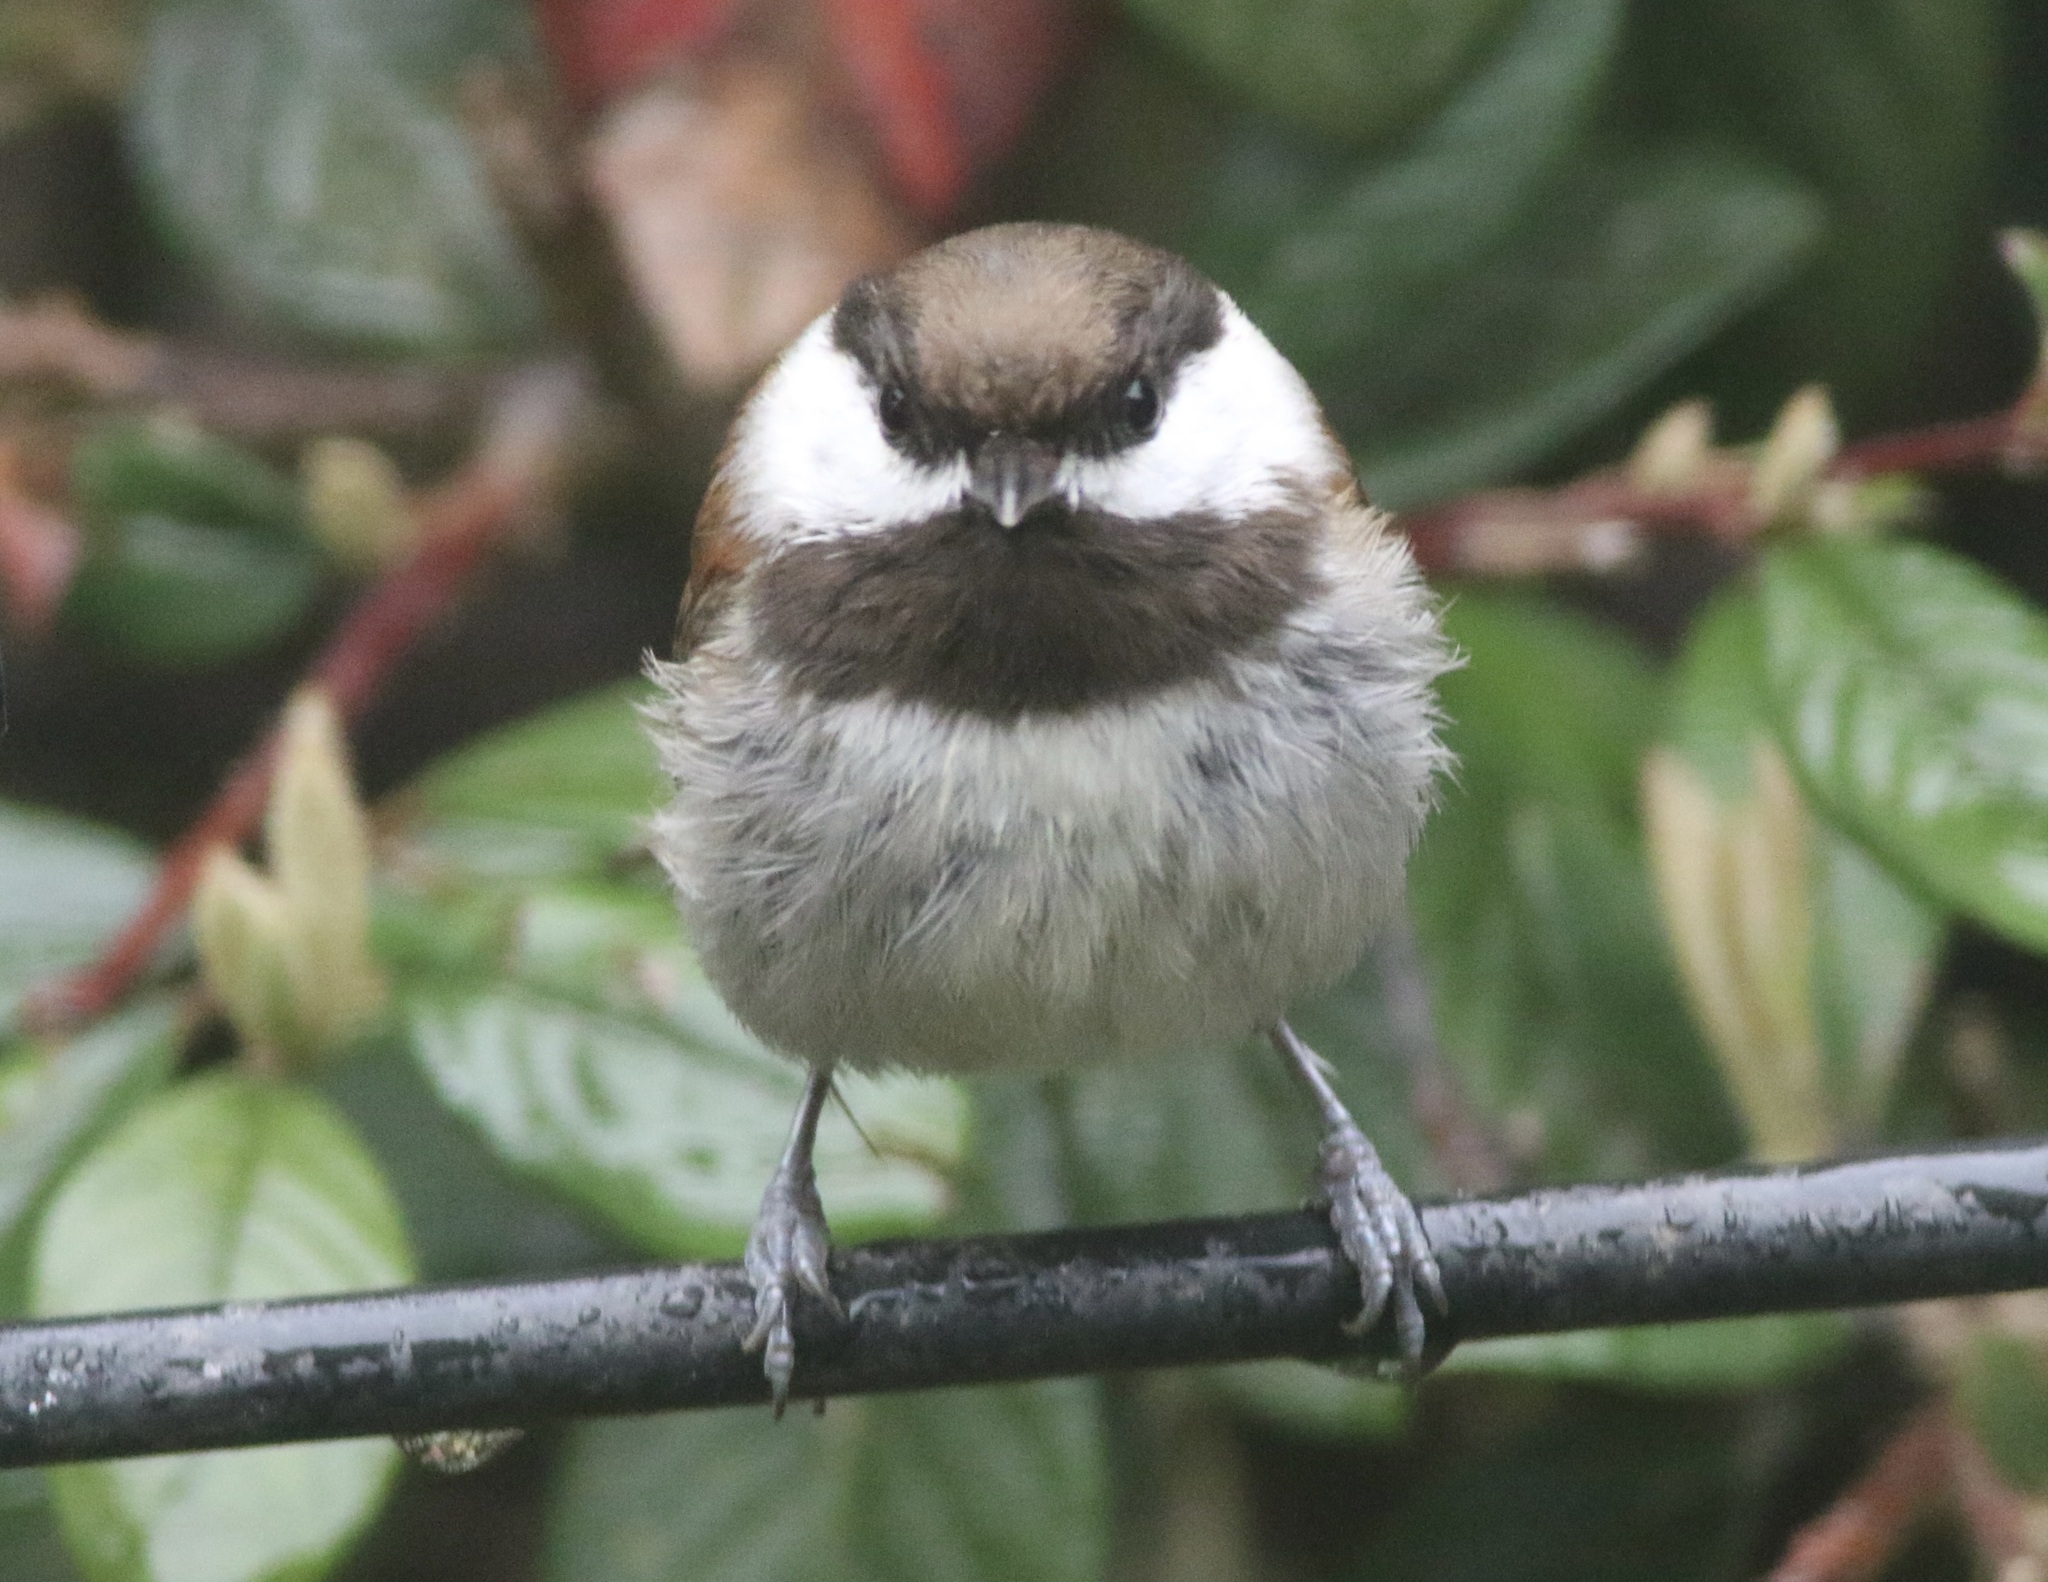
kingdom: Animalia
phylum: Chordata
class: Aves
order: Passeriformes
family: Paridae
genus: Poecile
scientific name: Poecile rufescens
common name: Chestnut-backed chickadee
